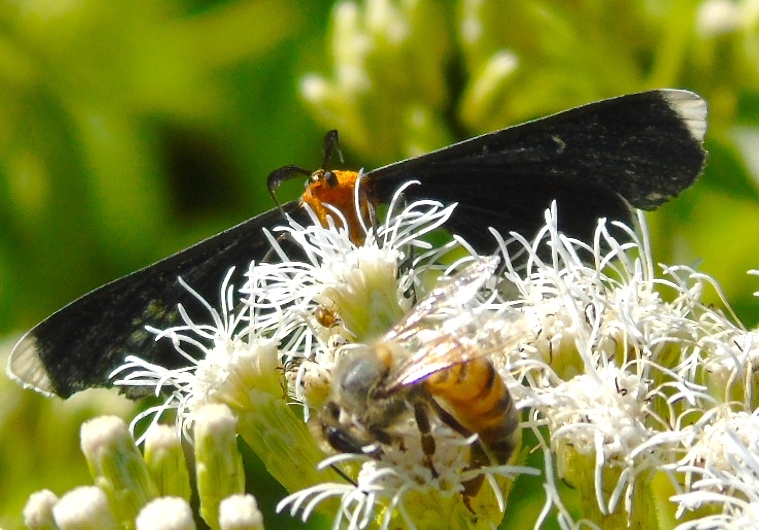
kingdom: Animalia
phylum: Arthropoda
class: Insecta
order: Lepidoptera
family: Geometridae
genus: Melanchroia
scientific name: Melanchroia chephise
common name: White-tipped black
